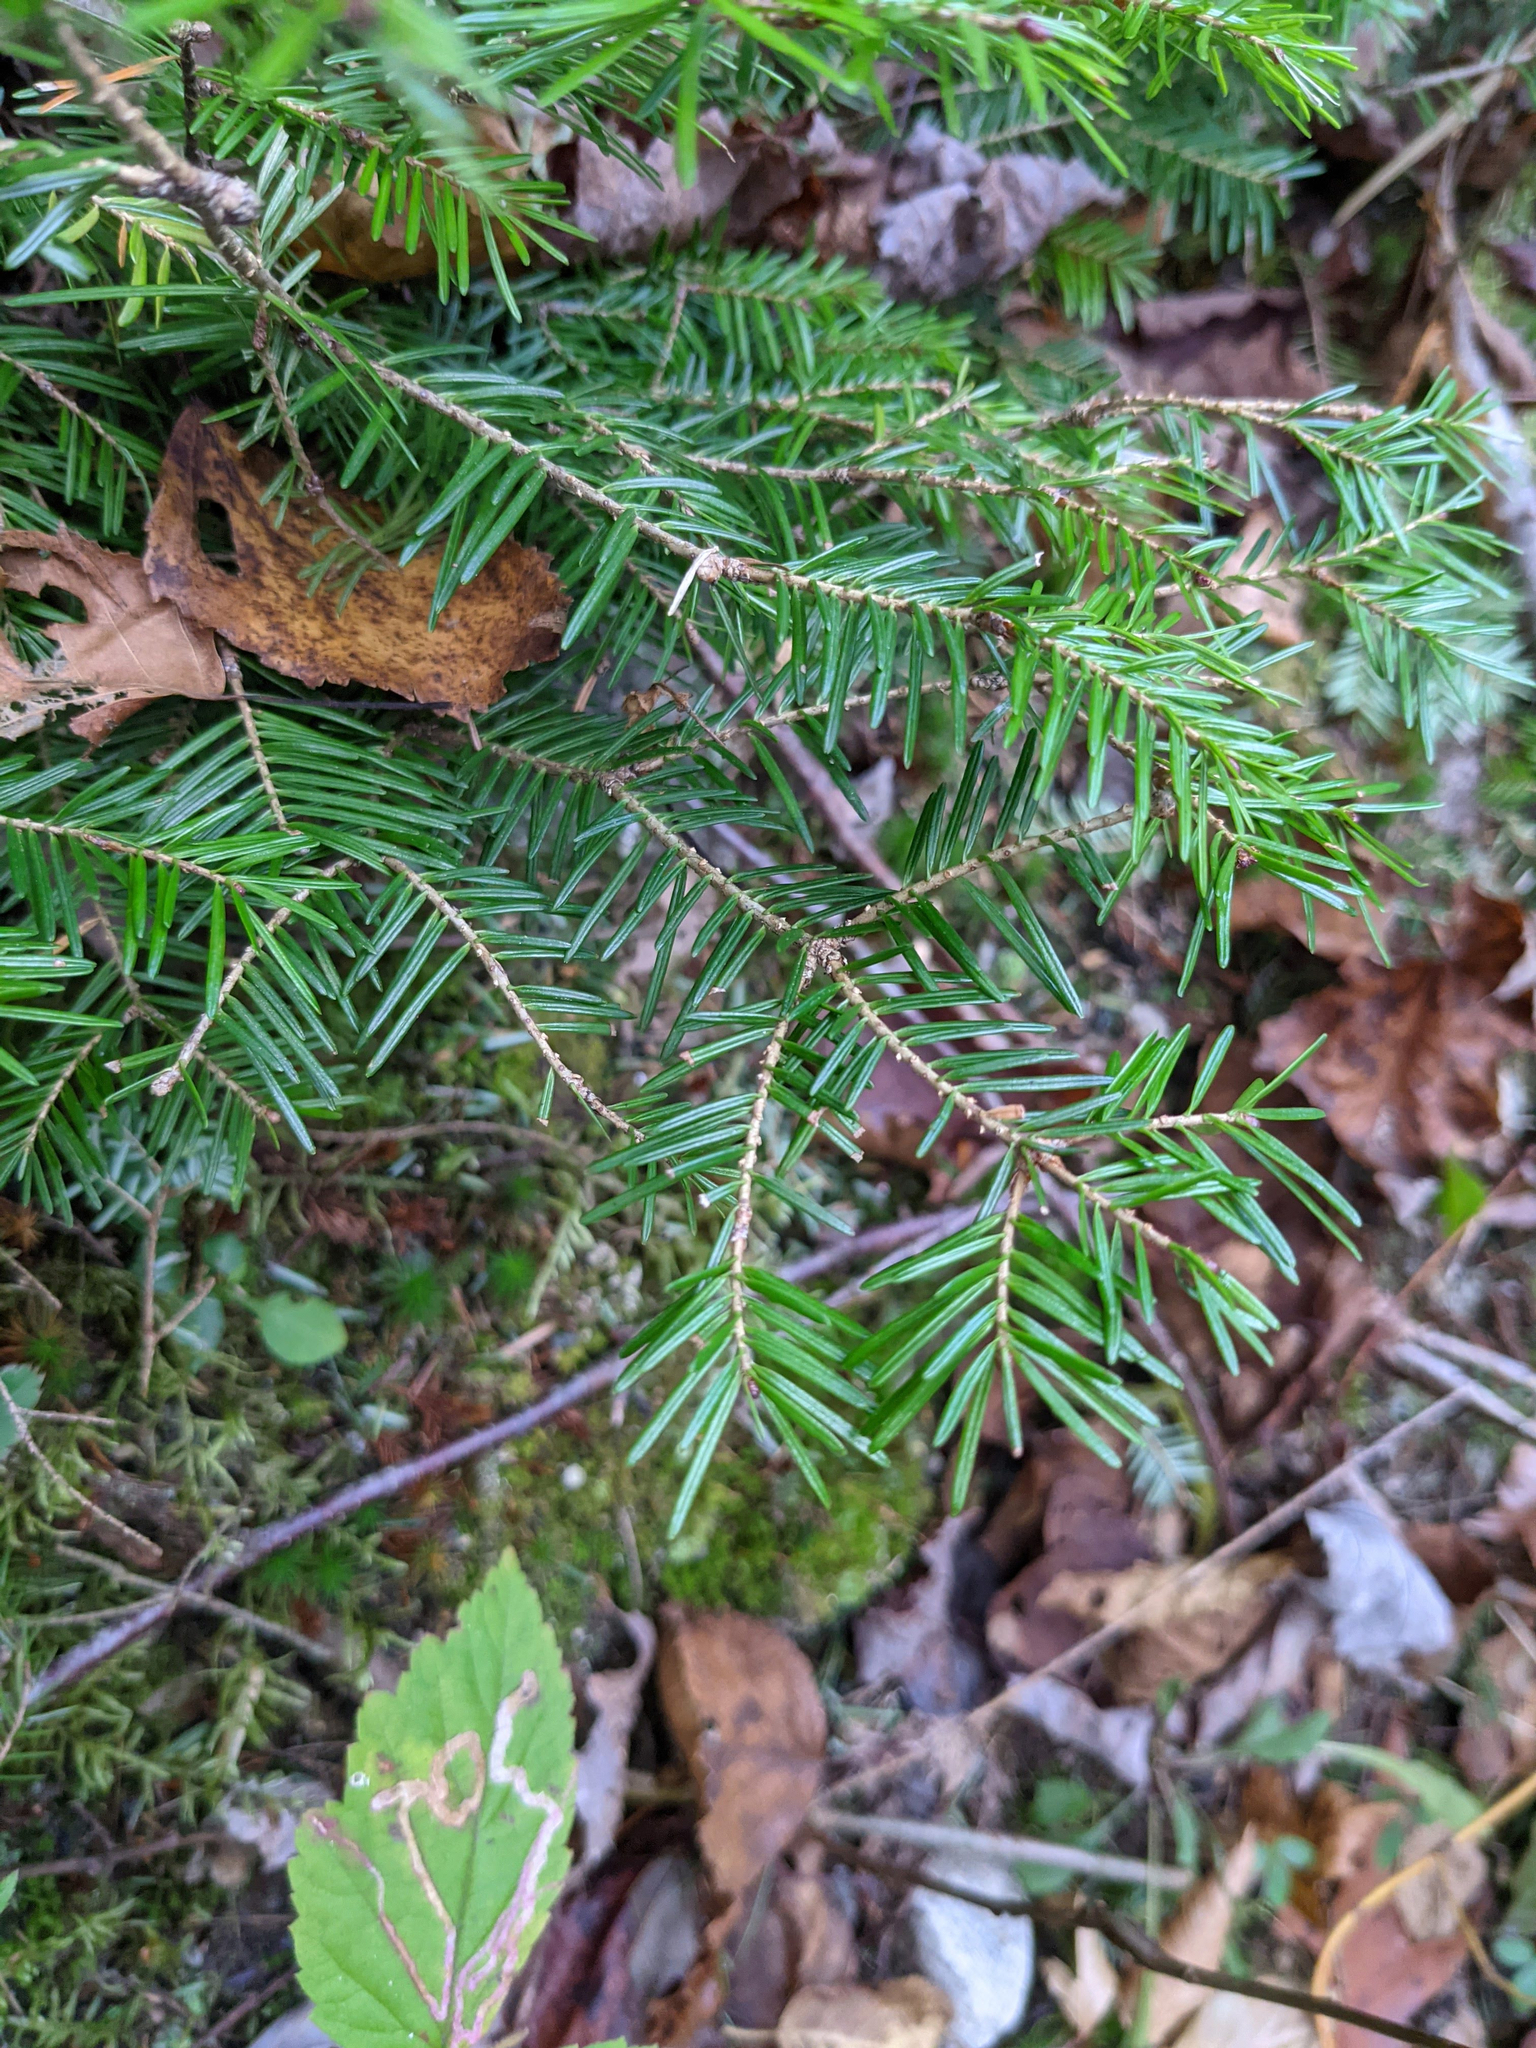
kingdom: Plantae
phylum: Tracheophyta
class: Pinopsida
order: Pinales
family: Pinaceae
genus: Abies
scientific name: Abies balsamea
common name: Balsam fir
